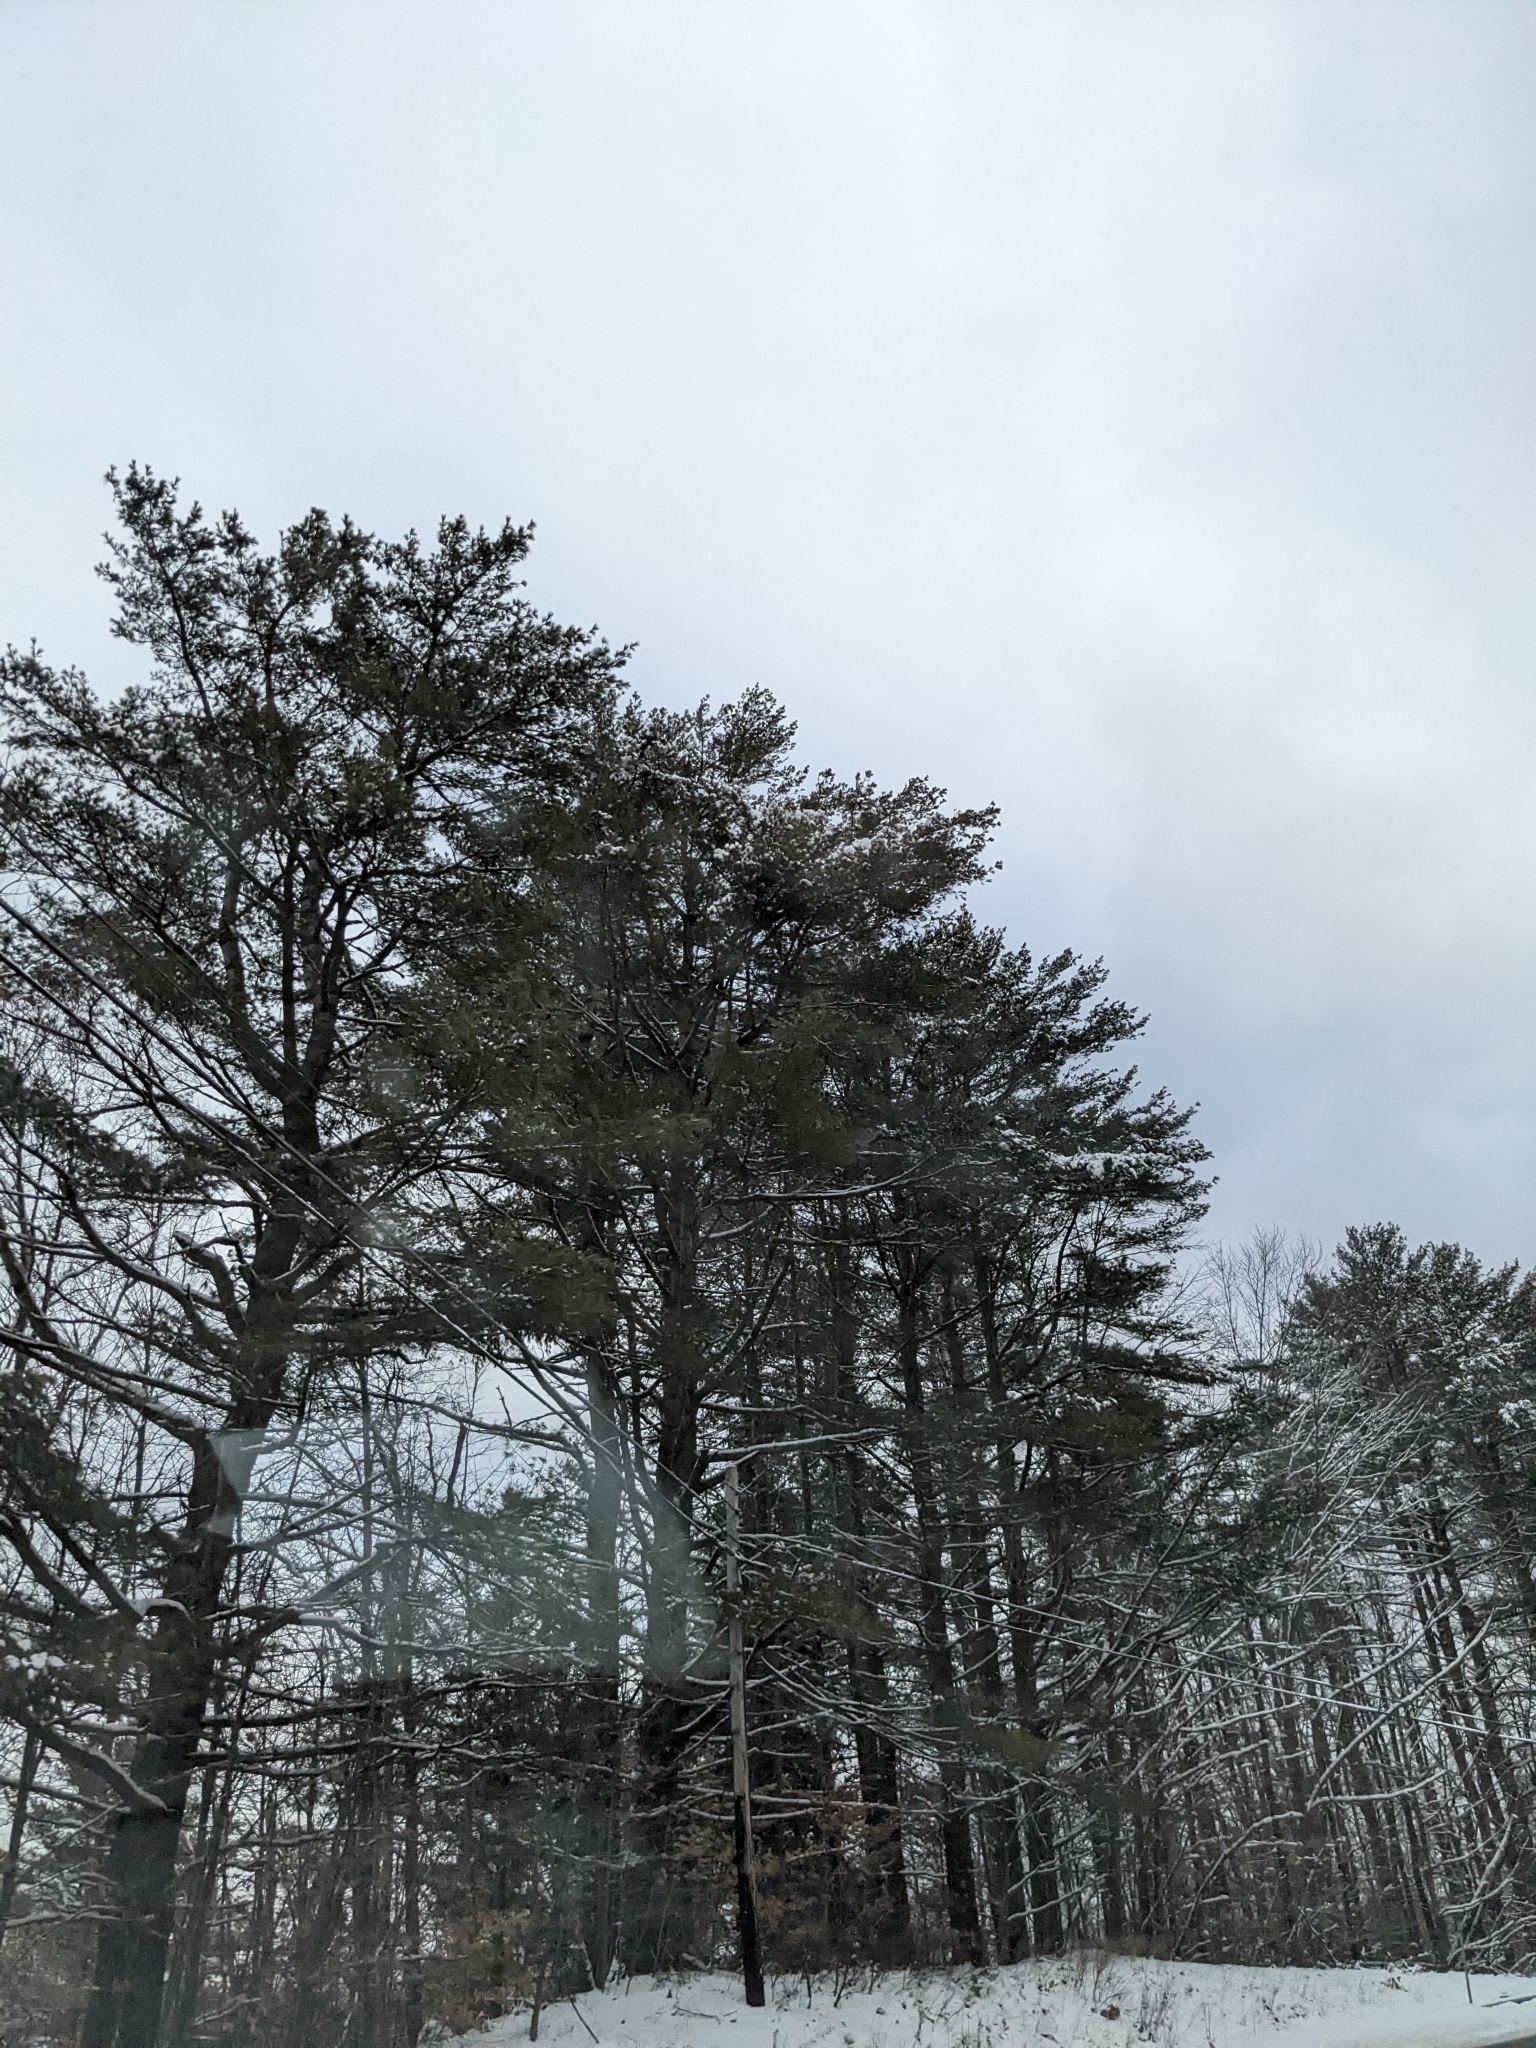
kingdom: Plantae
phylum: Tracheophyta
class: Pinopsida
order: Pinales
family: Pinaceae
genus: Pinus
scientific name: Pinus strobus
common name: Weymouth pine
